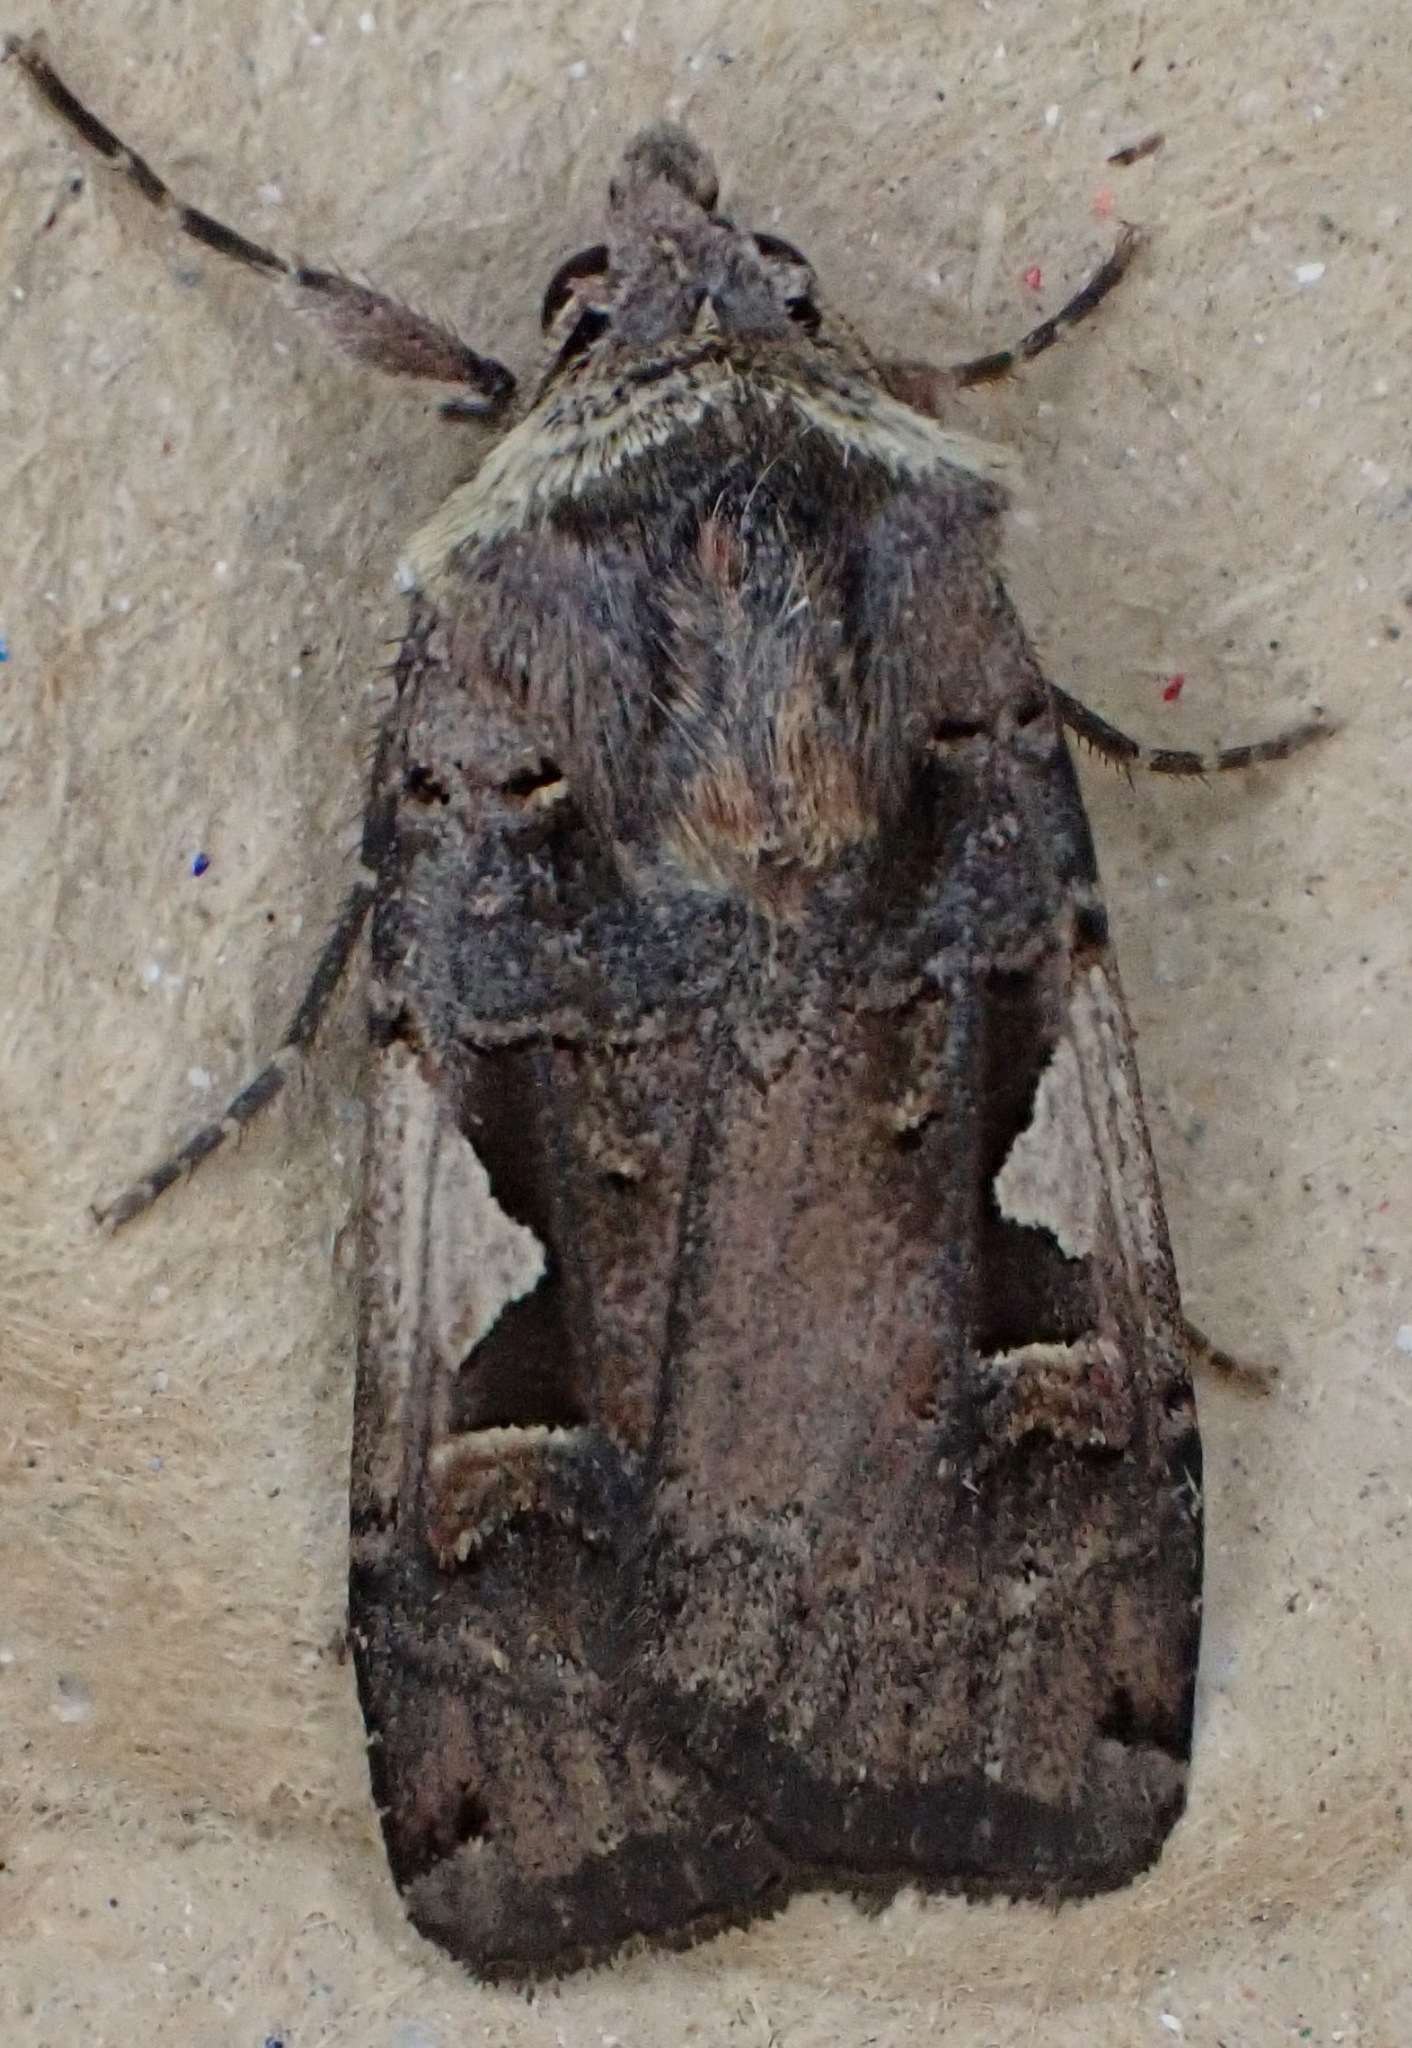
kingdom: Animalia
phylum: Arthropoda
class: Insecta
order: Lepidoptera
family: Noctuidae
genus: Xestia
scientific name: Xestia c-nigrum
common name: Setaceous hebrew character
